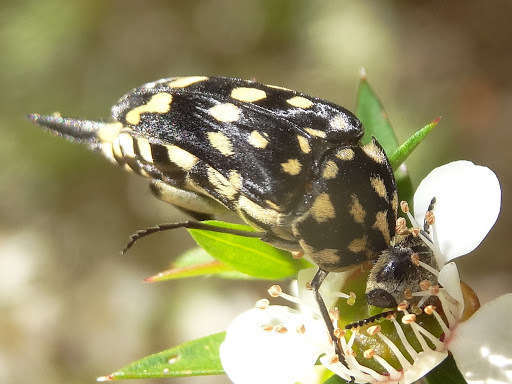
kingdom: Animalia
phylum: Arthropoda
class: Insecta
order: Coleoptera
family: Mordellidae
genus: Hoshihananomia
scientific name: Hoshihananomia
